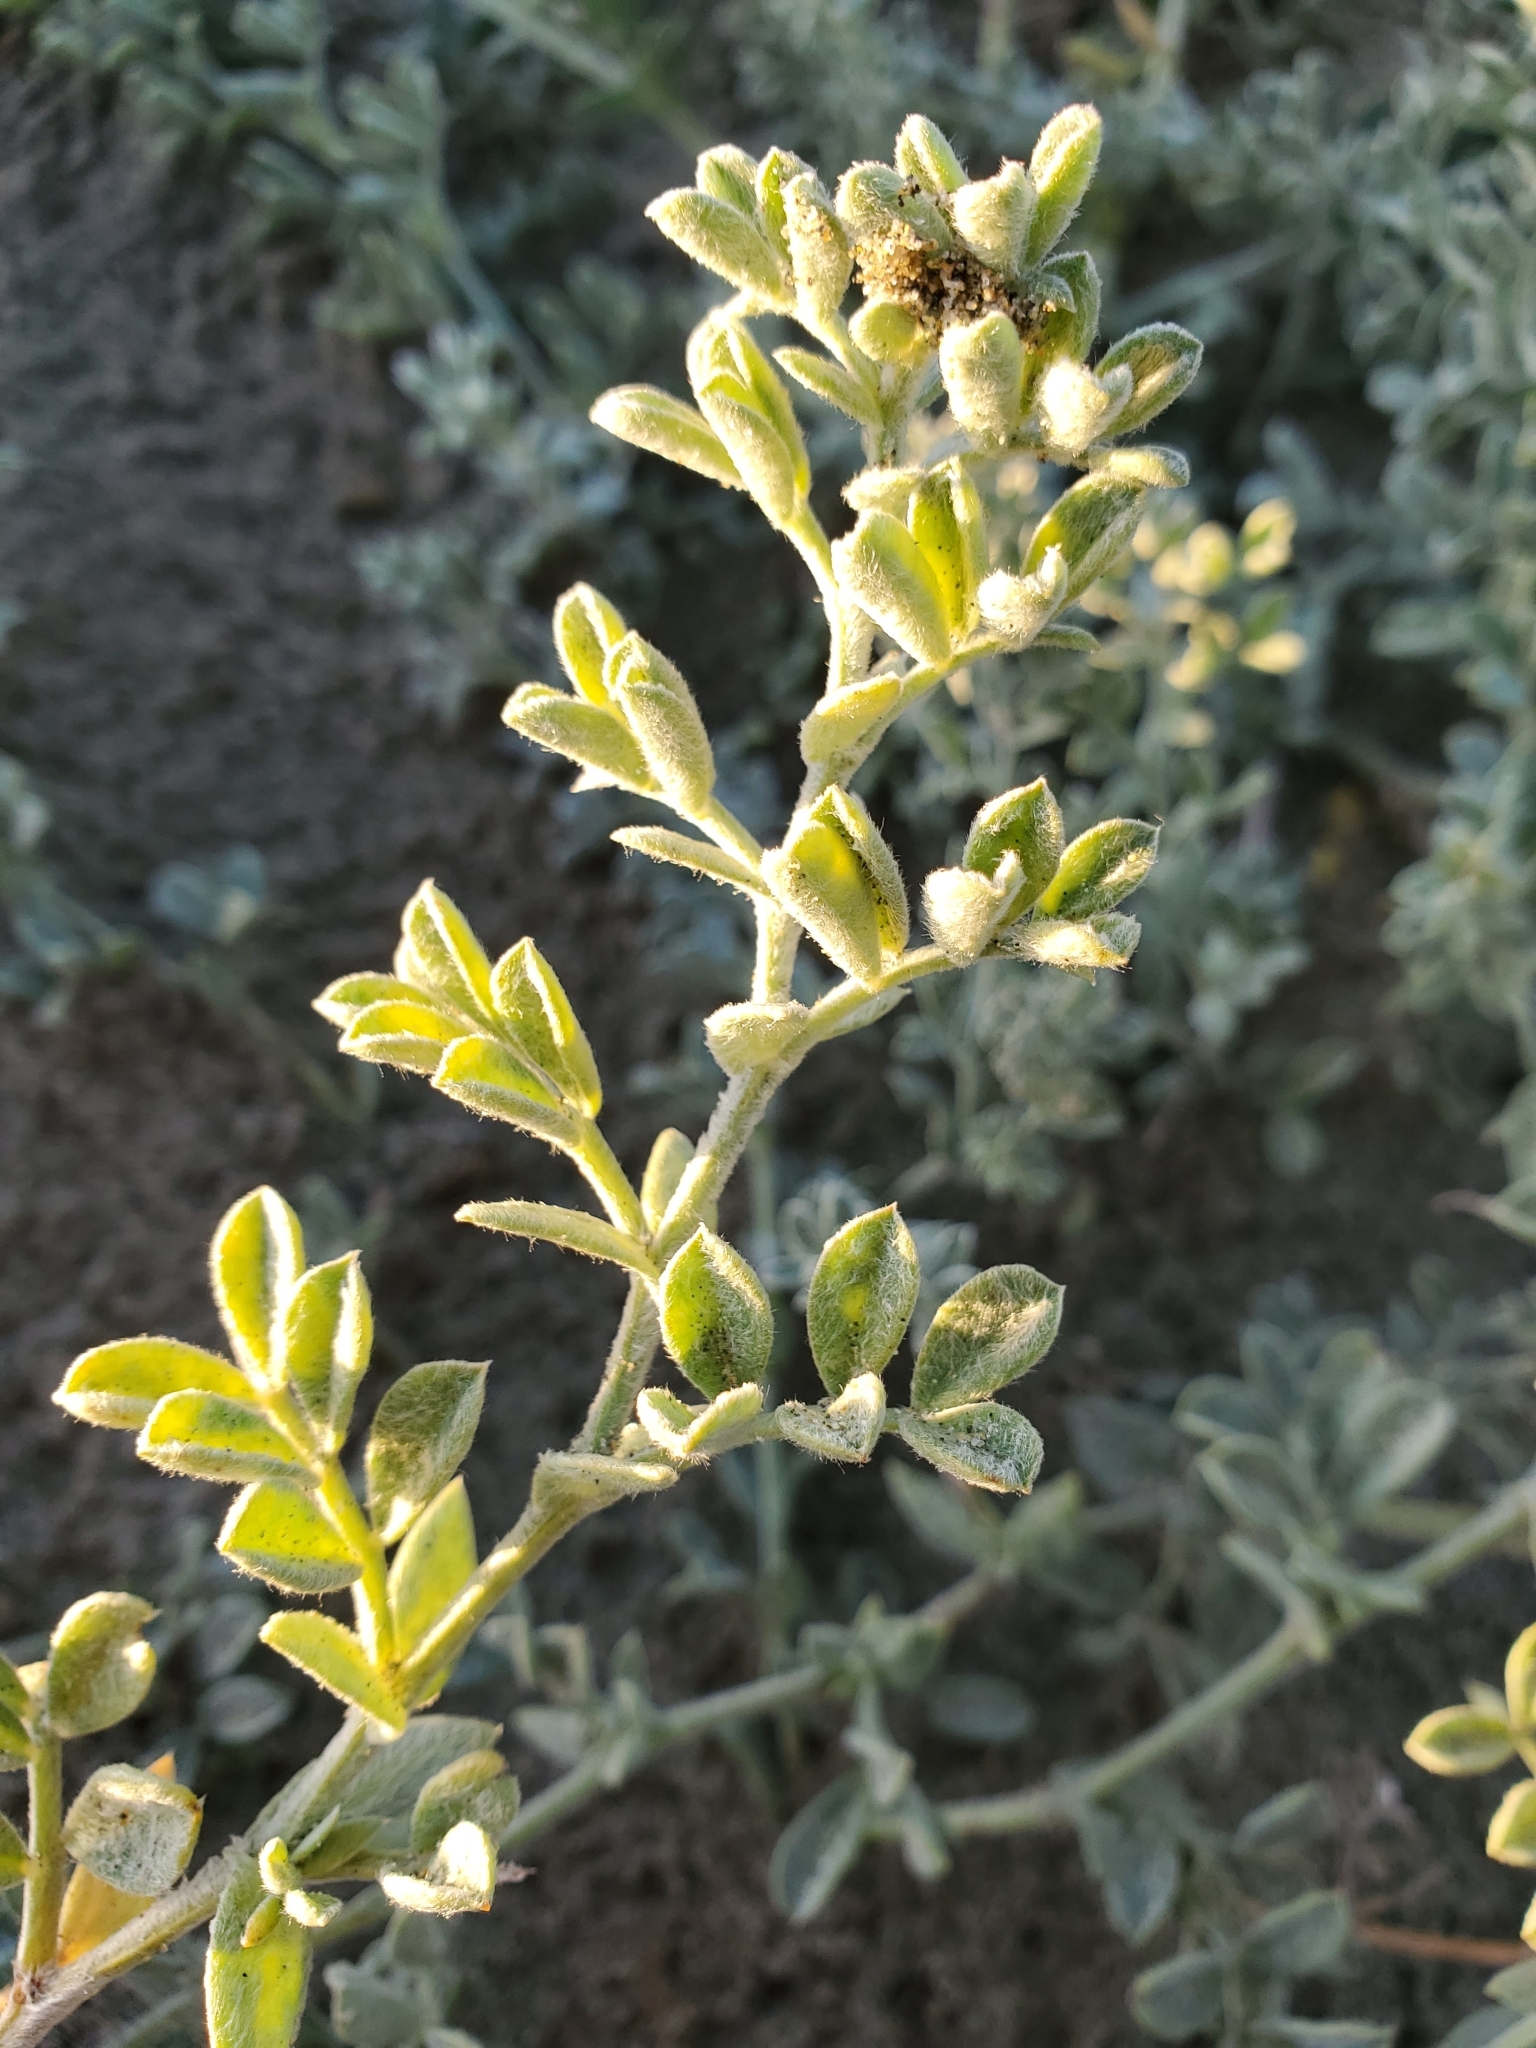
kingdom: Plantae
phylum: Tracheophyta
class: Magnoliopsida
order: Fabales
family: Fabaceae
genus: Lathyrus
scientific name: Lathyrus littoralis
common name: Dune sweet pea
